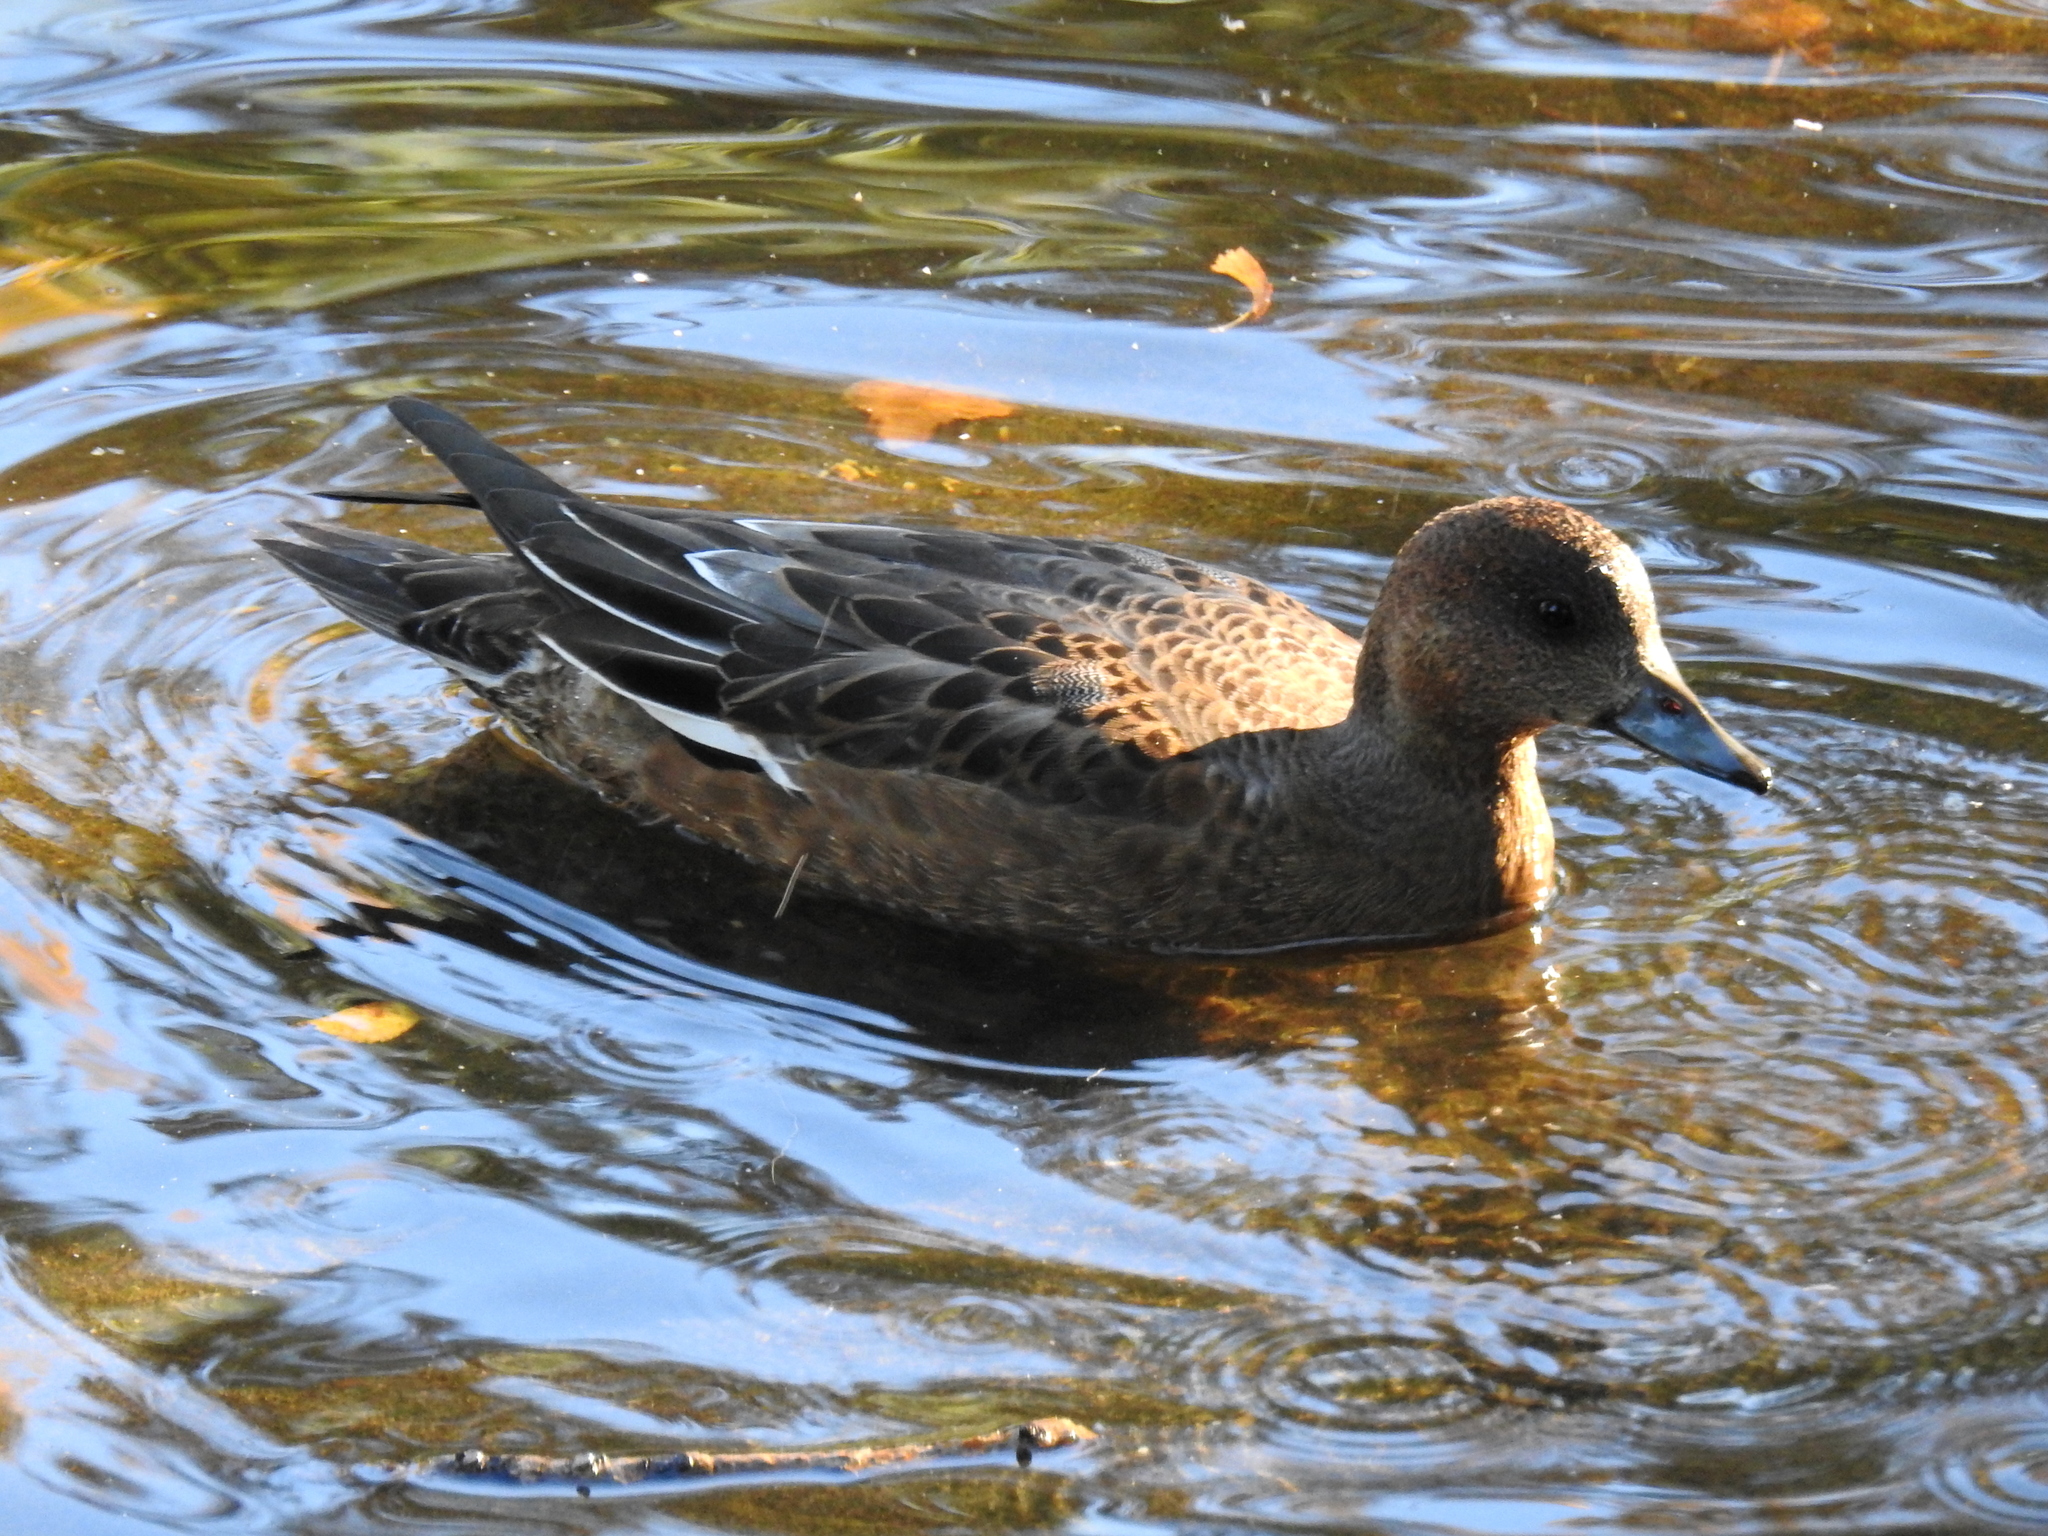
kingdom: Animalia
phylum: Chordata
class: Aves
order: Anseriformes
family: Anatidae
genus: Mareca
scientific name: Mareca penelope
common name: Eurasian wigeon
